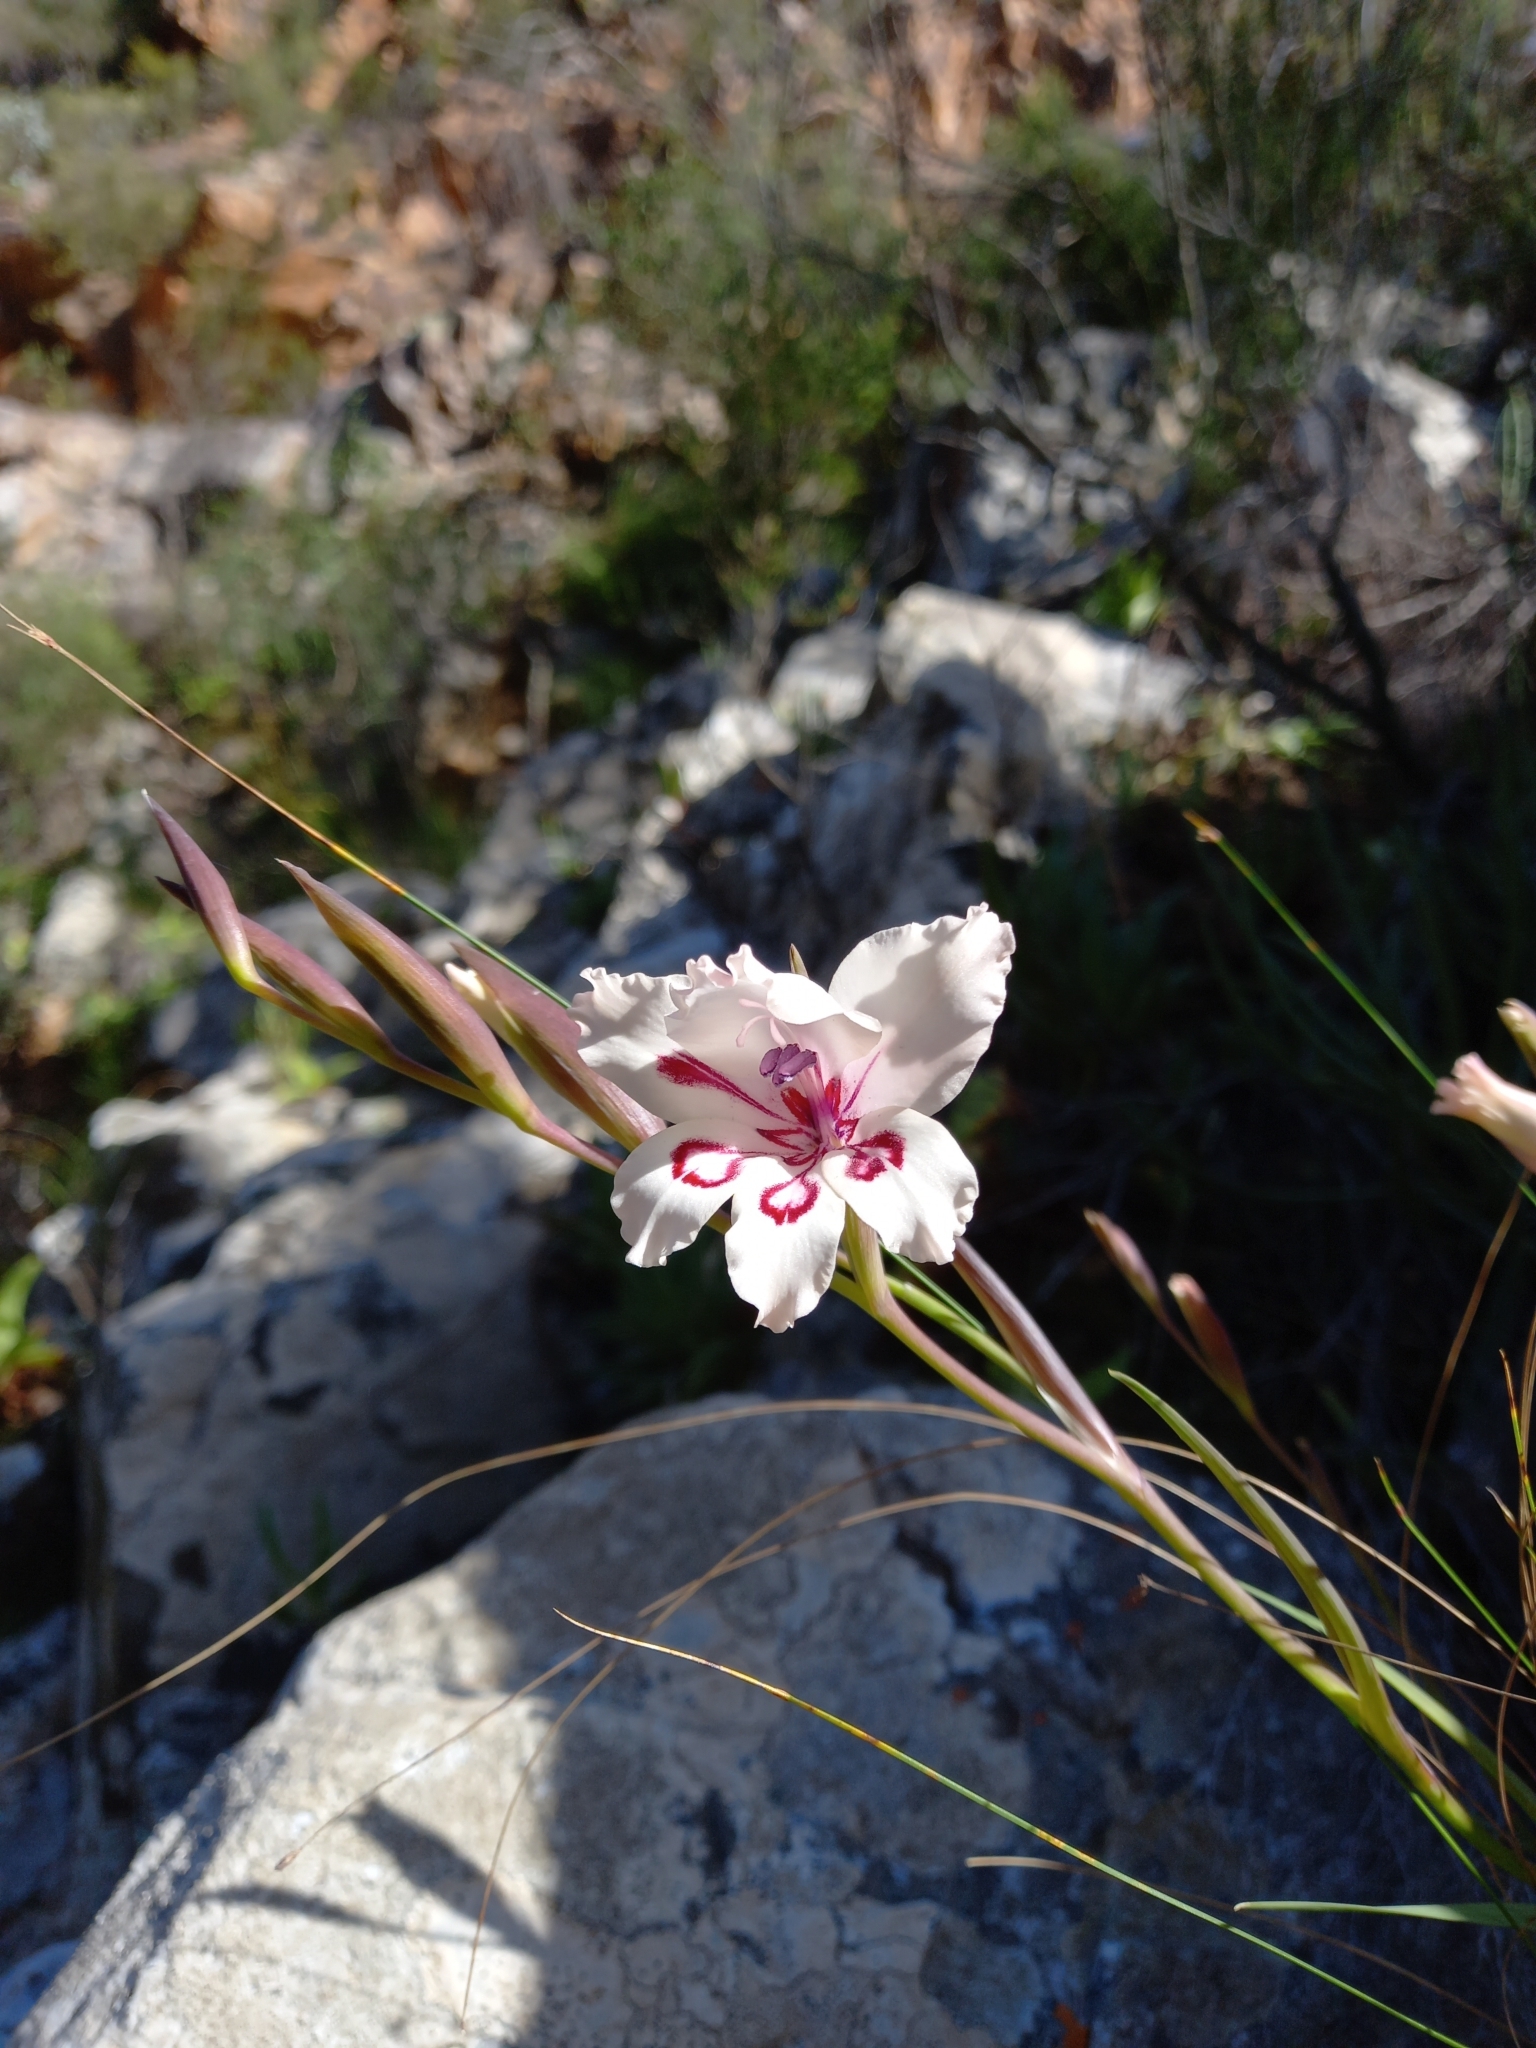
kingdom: Plantae
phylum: Tracheophyta
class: Liliopsida
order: Asparagales
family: Iridaceae
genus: Gladiolus
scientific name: Gladiolus carneus
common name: Painted-lady
